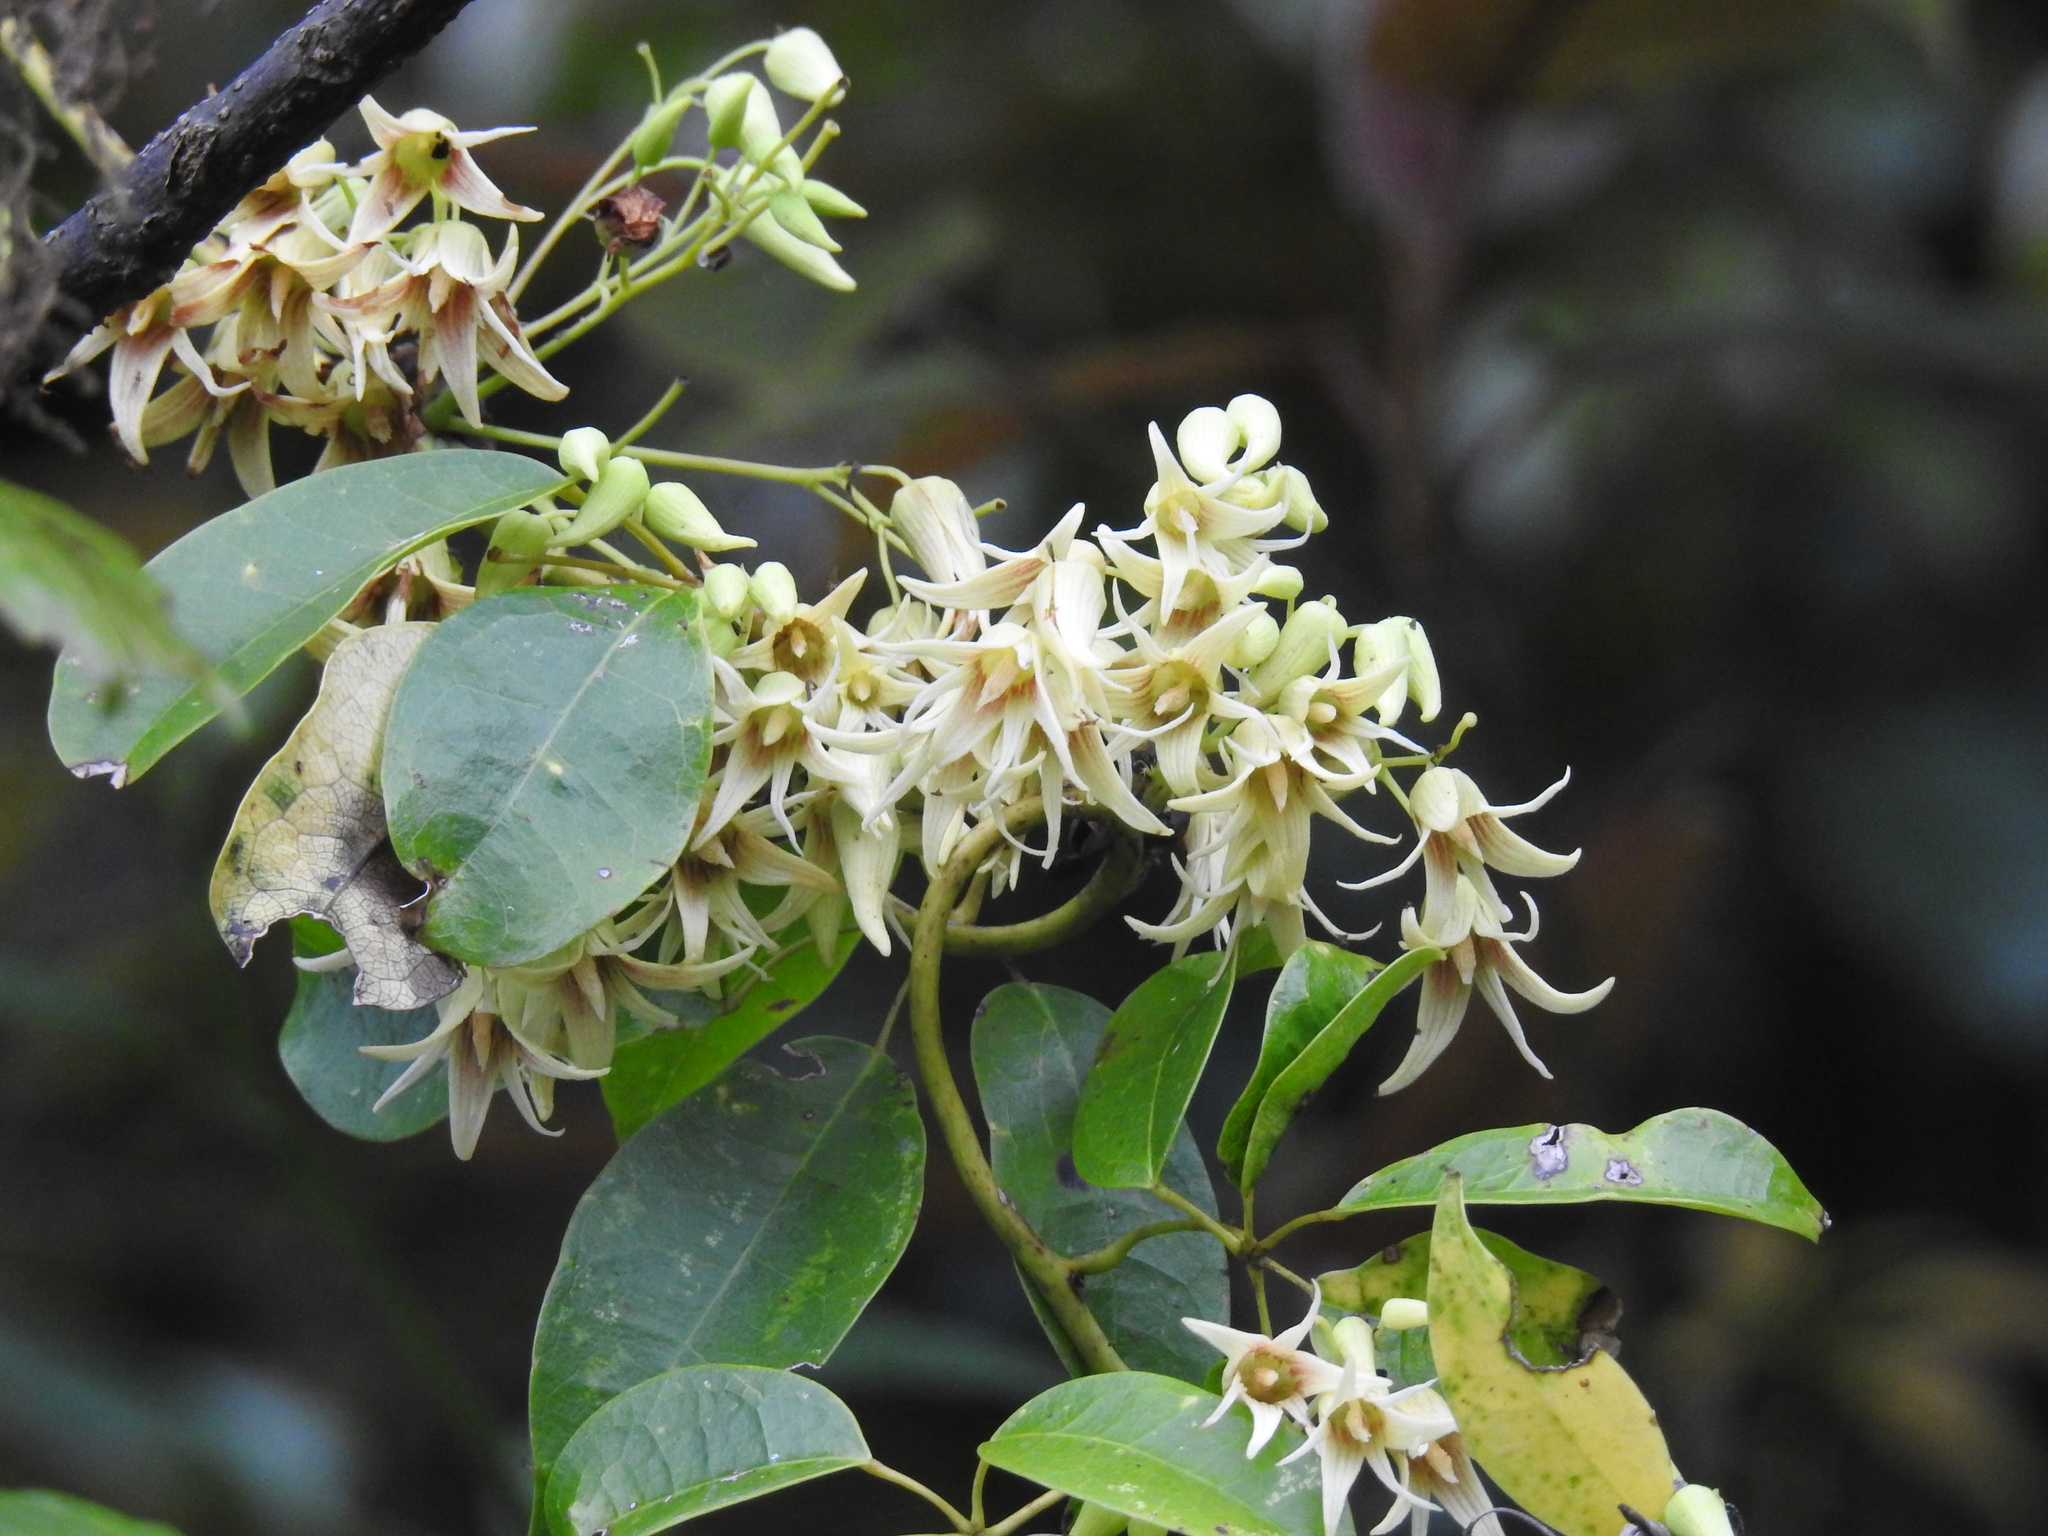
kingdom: Plantae
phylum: Tracheophyta
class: Magnoliopsida
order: Ranunculales
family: Lardizabalaceae
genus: Stauntonia
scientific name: Stauntonia obovatifoliola
